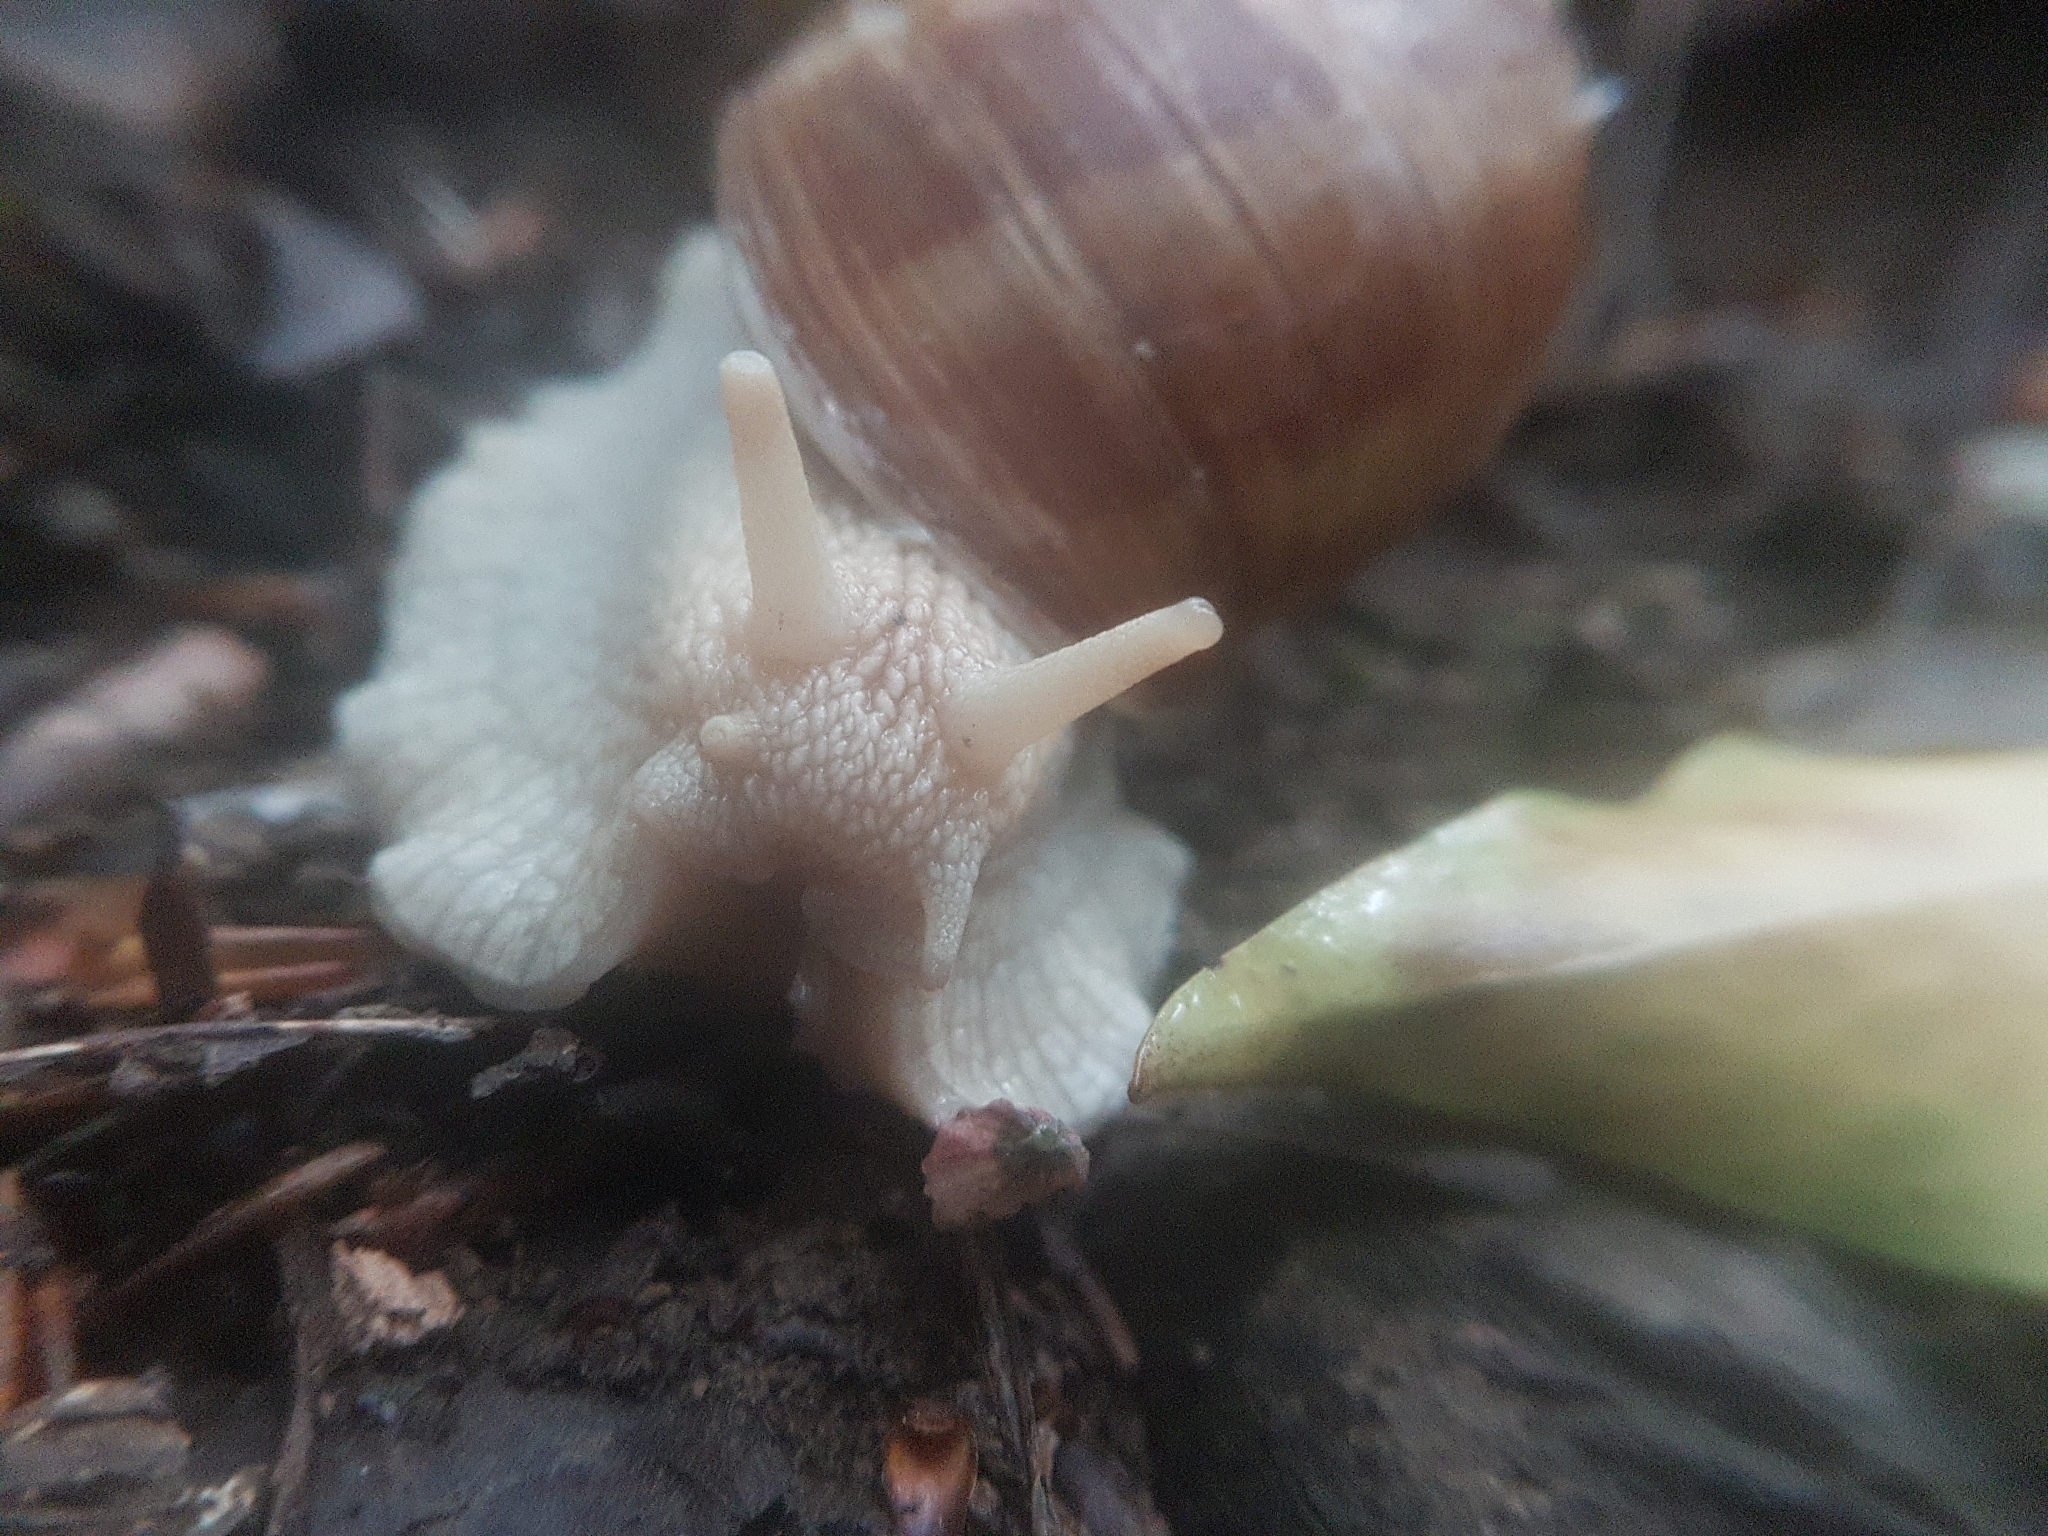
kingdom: Animalia
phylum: Mollusca
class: Gastropoda
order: Stylommatophora
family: Helicidae
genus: Helix
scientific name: Helix pomatia
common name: Roman snail
